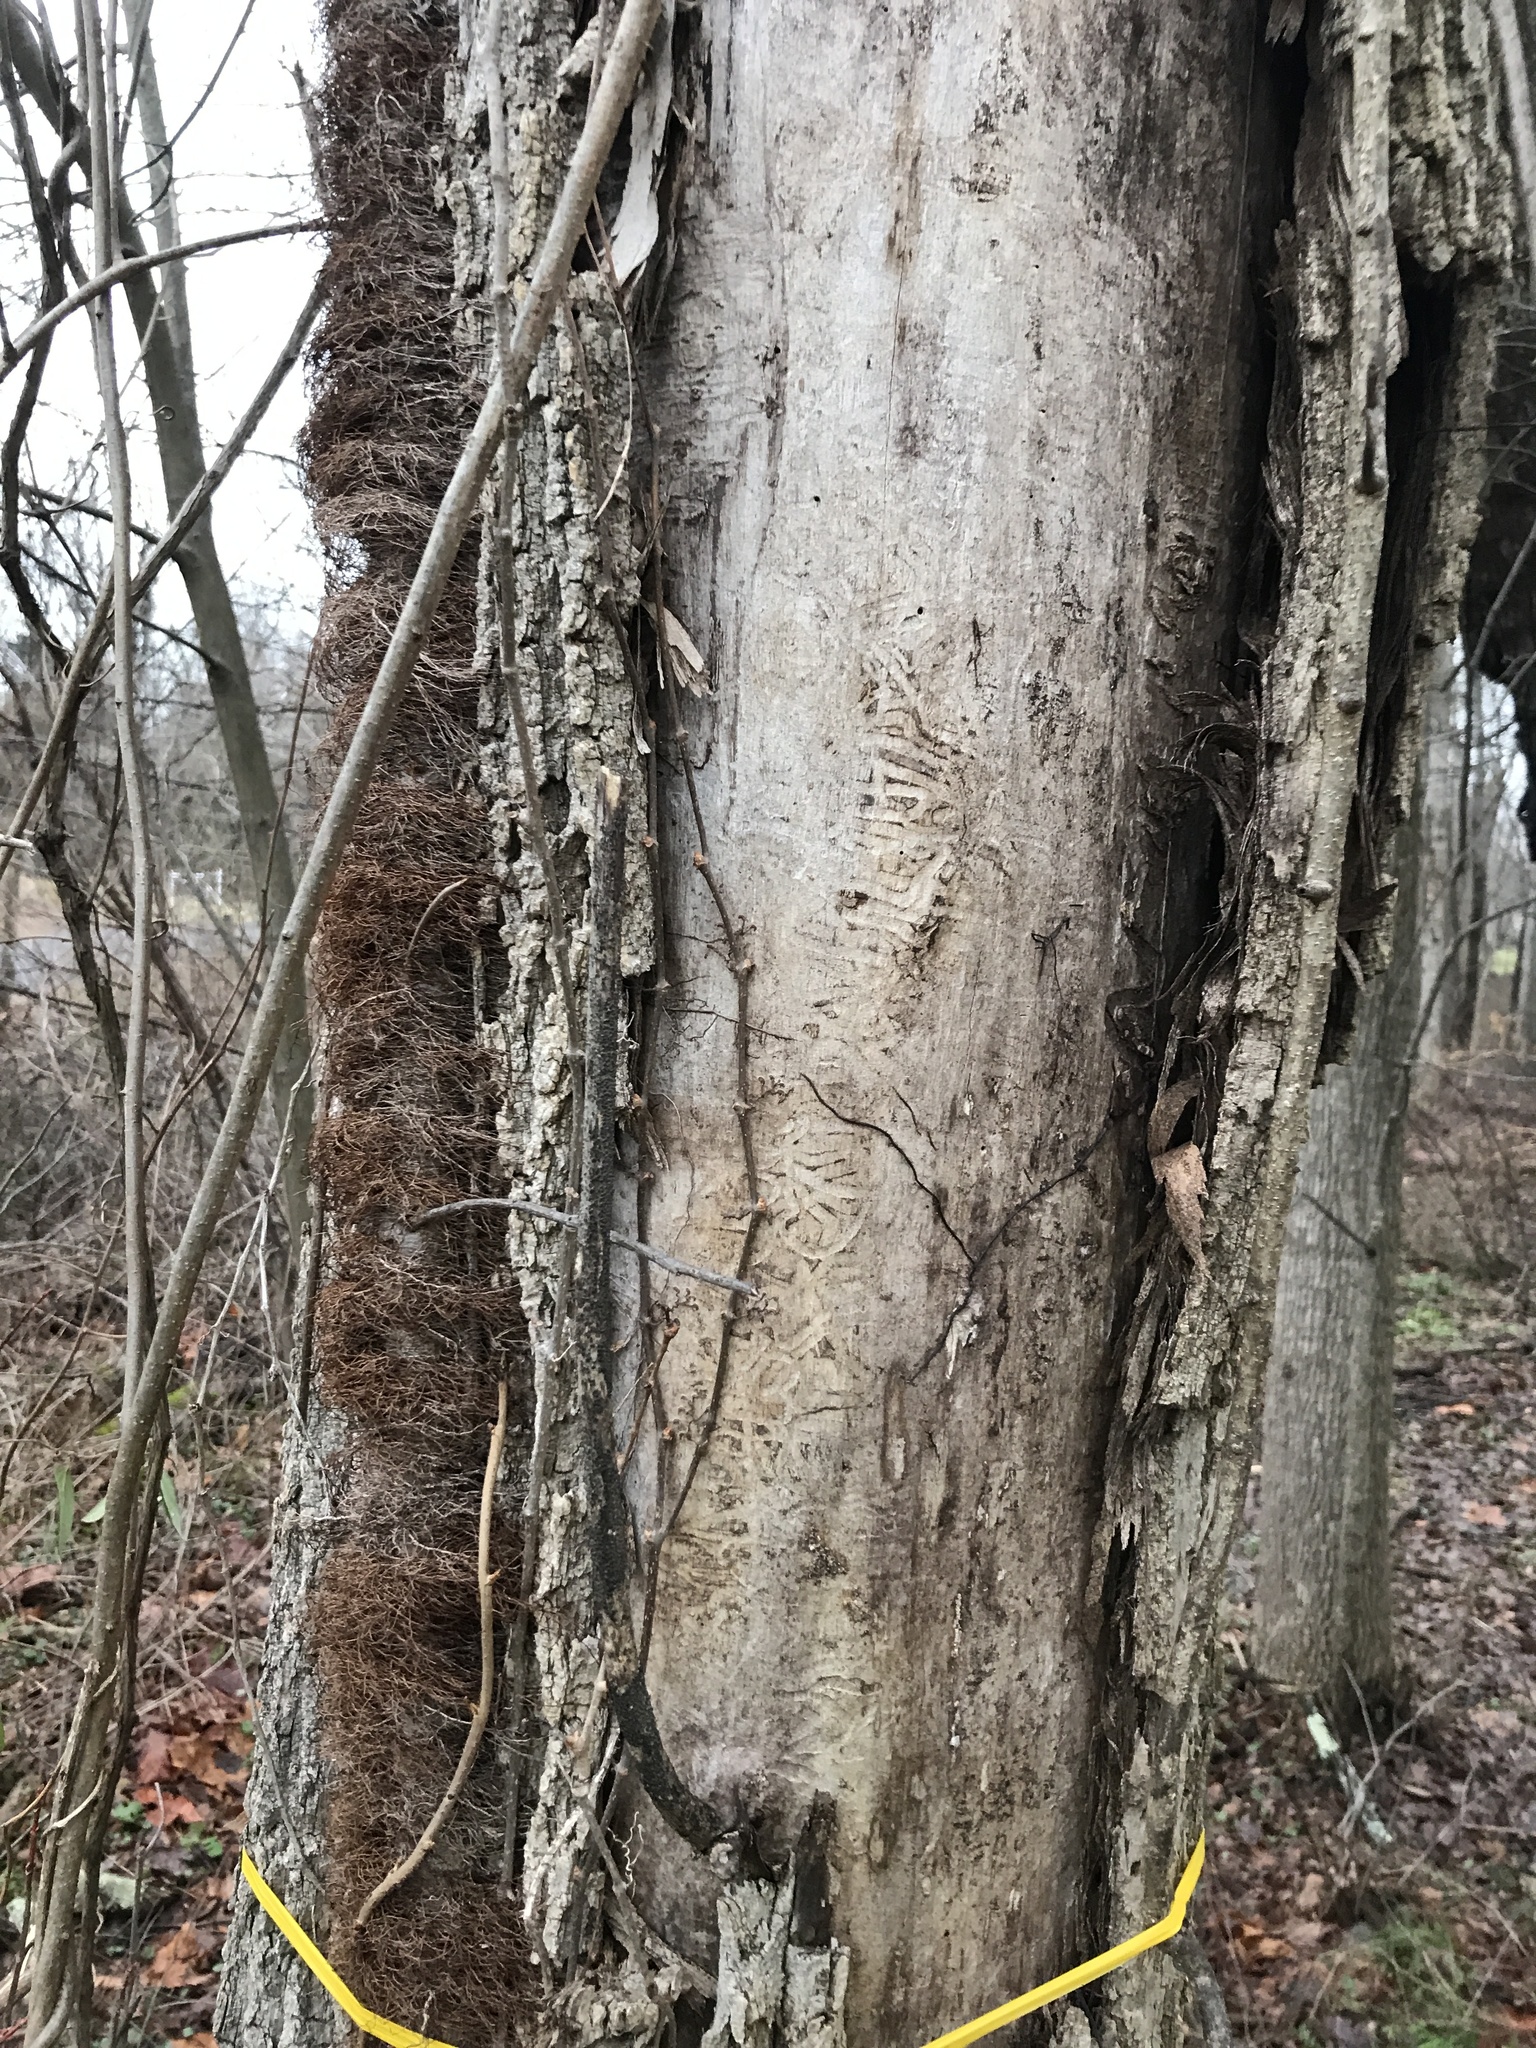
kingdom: Animalia
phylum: Arthropoda
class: Insecta
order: Coleoptera
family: Buprestidae
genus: Agrilus
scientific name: Agrilus planipennis
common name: Emerald ash borer
